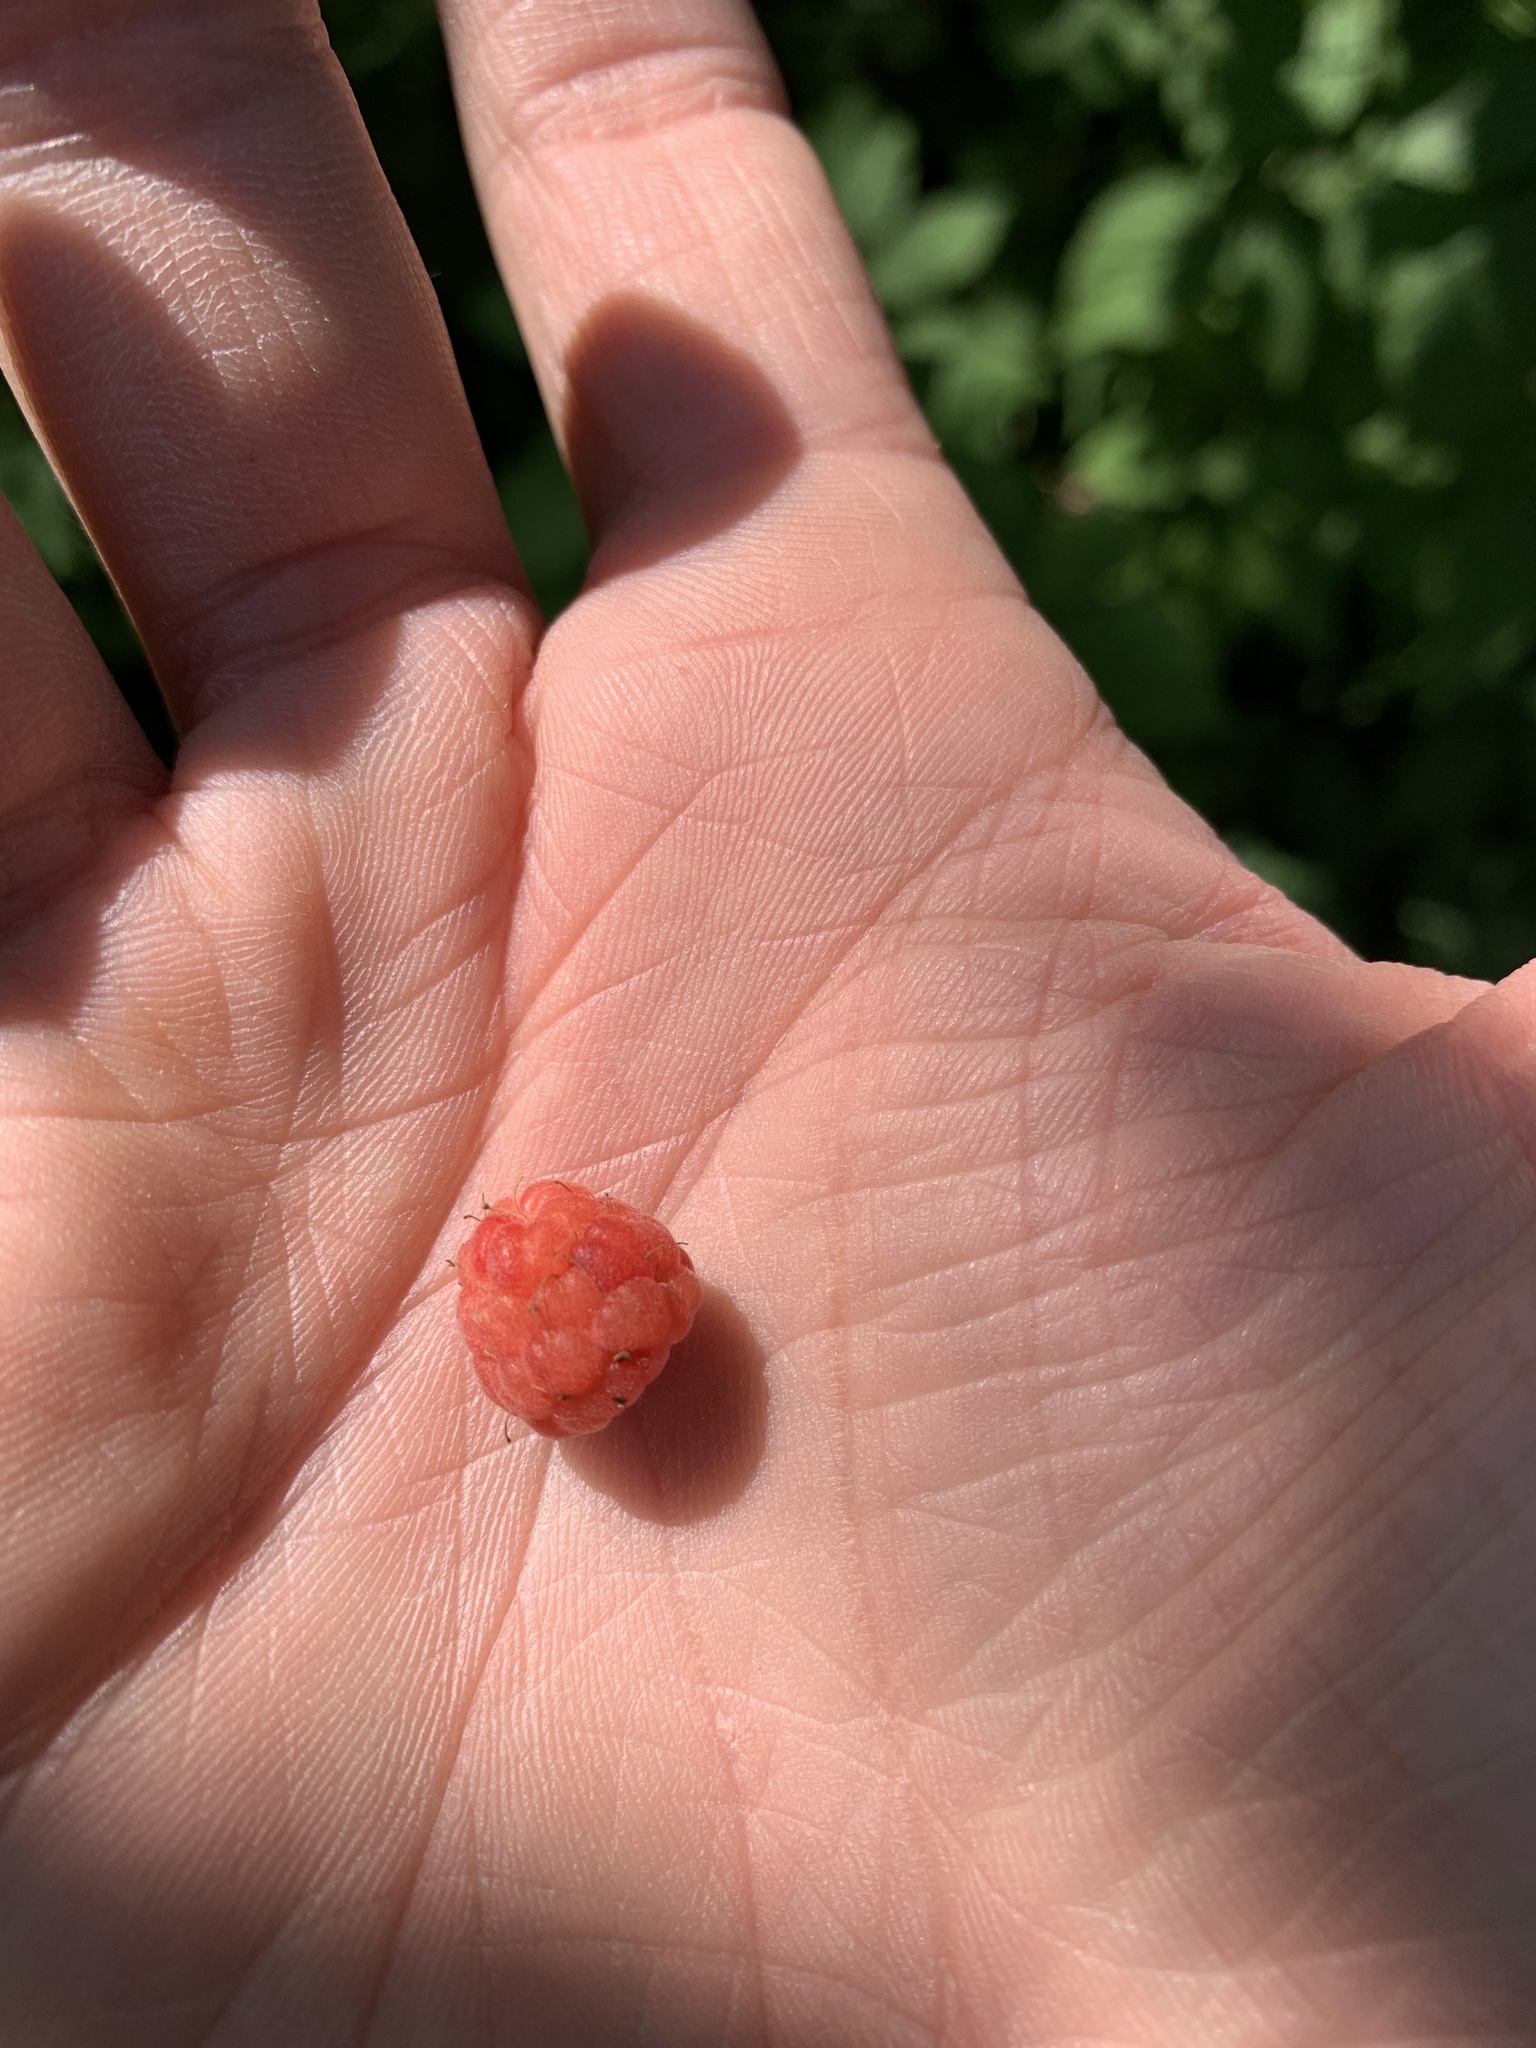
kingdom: Plantae
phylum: Tracheophyta
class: Magnoliopsida
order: Rosales
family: Rosaceae
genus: Rubus
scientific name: Rubus idaeus
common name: Raspberry
